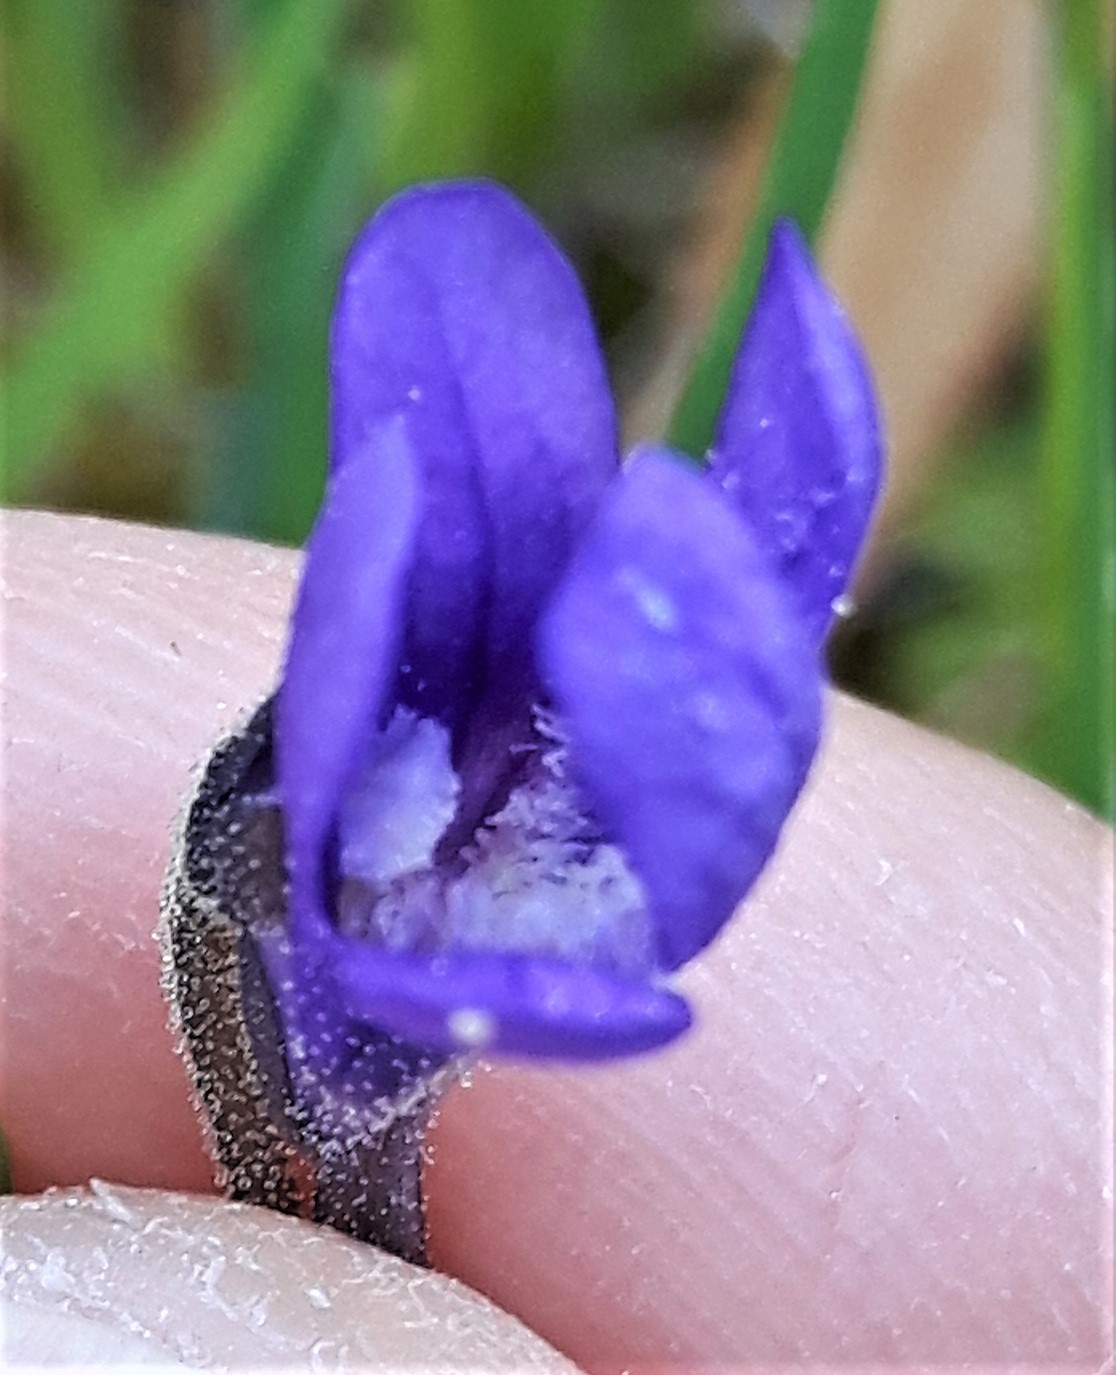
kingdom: Plantae
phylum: Tracheophyta
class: Magnoliopsida
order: Lamiales
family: Lentibulariaceae
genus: Pinguicula
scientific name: Pinguicula vulgaris
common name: Common butterwort
